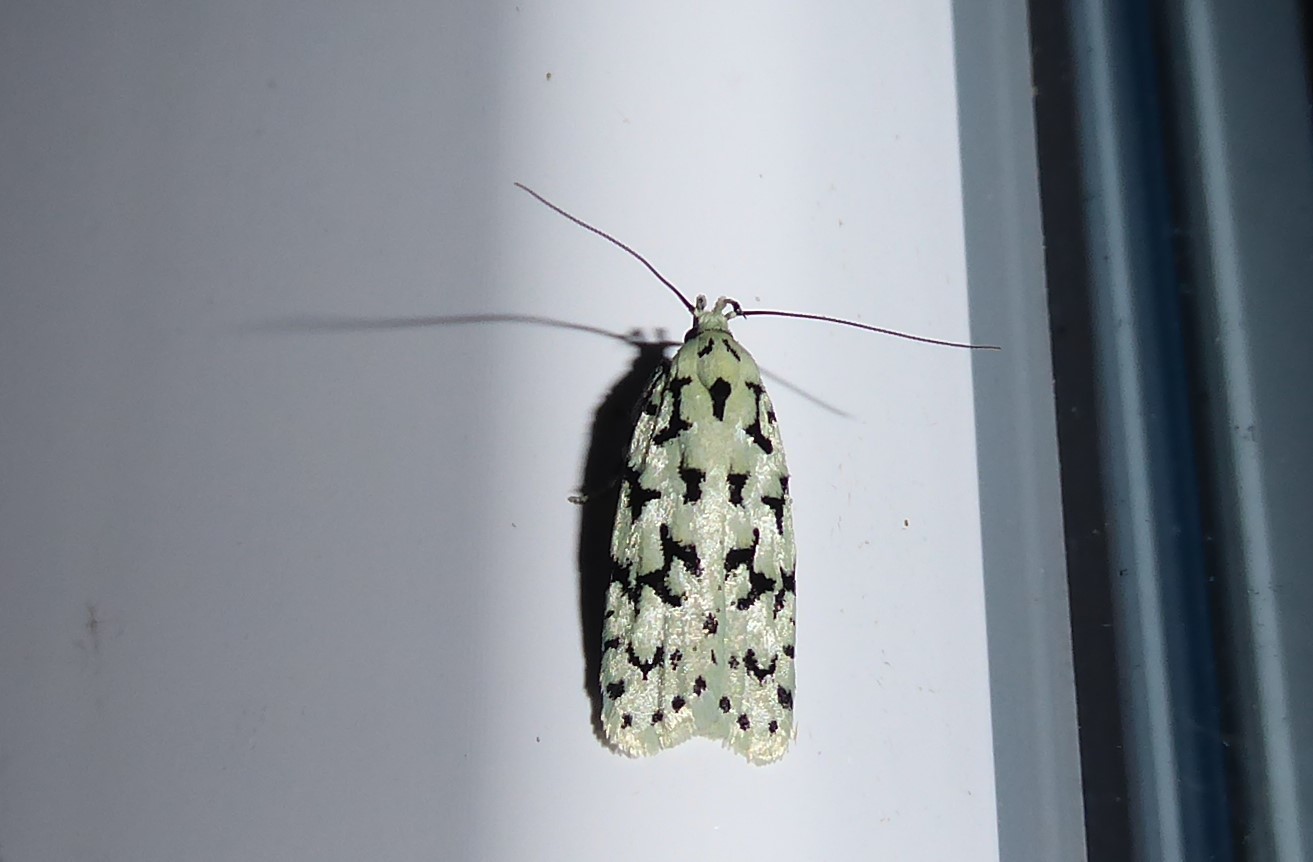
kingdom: Animalia
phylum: Arthropoda
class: Insecta
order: Lepidoptera
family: Oecophoridae
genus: Izatha
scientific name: Izatha huttoni
